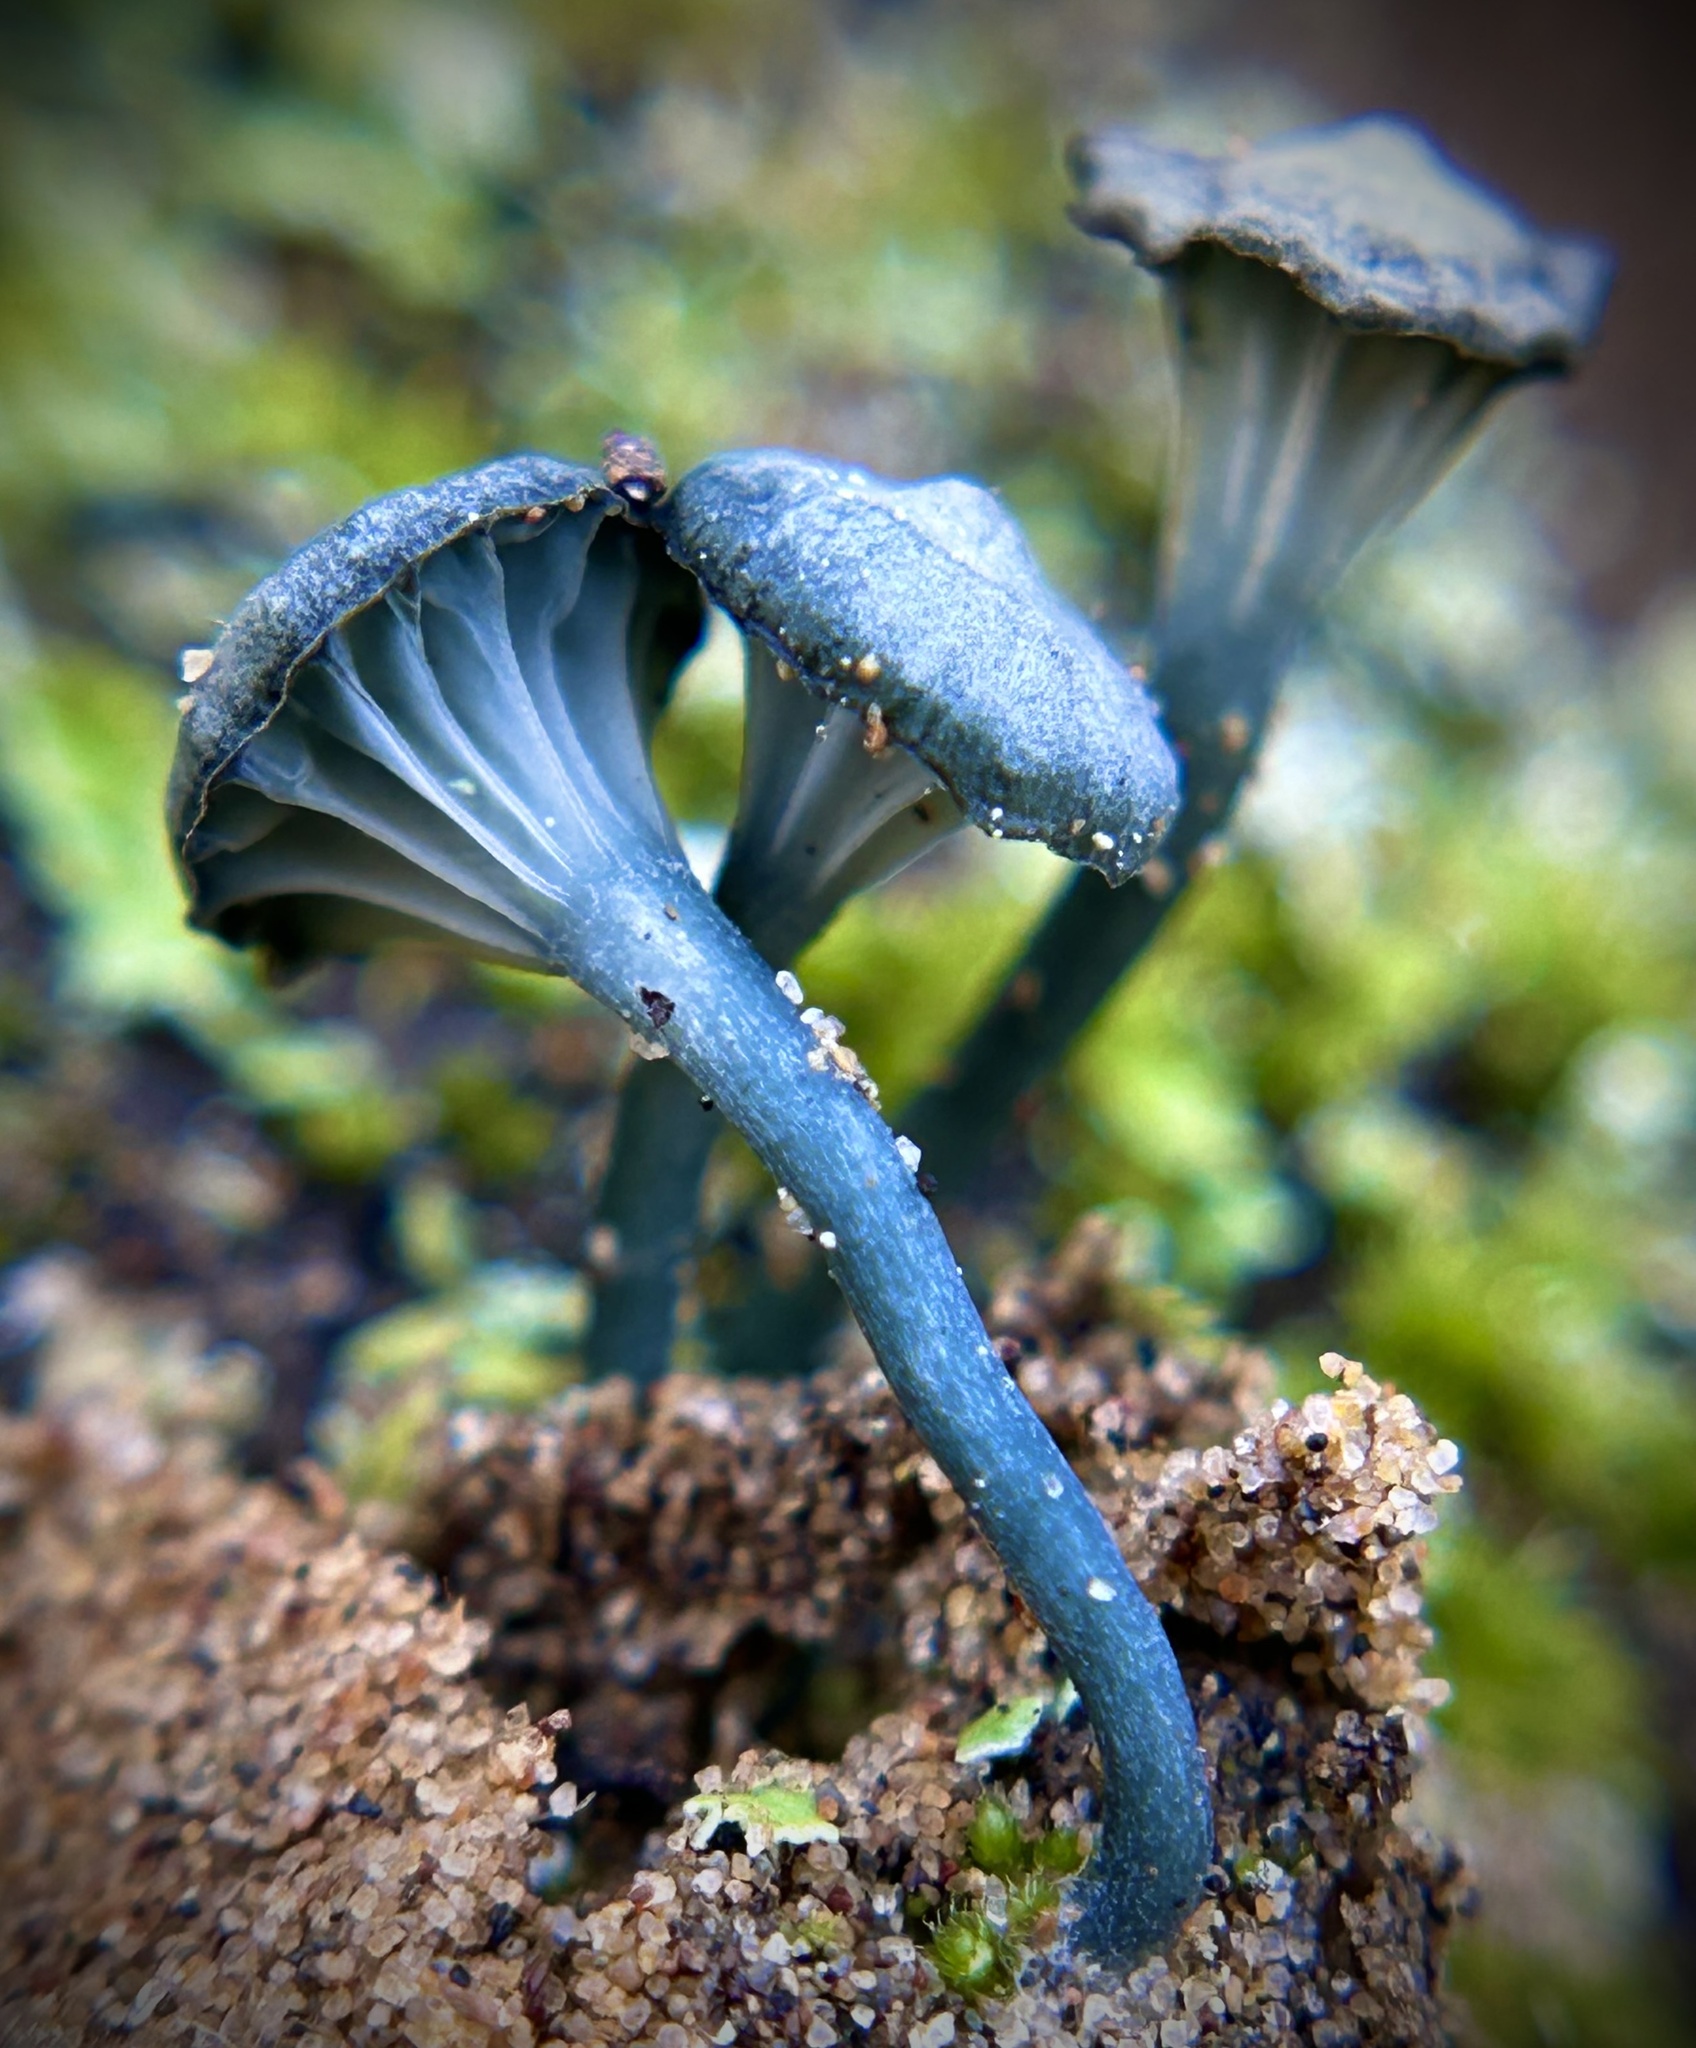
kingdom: Fungi
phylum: Basidiomycota
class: Agaricomycetes
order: Agaricales
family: Hygrophoraceae
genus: Arrhenia
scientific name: Arrhenia chlorocyanea
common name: Verdigris navel
